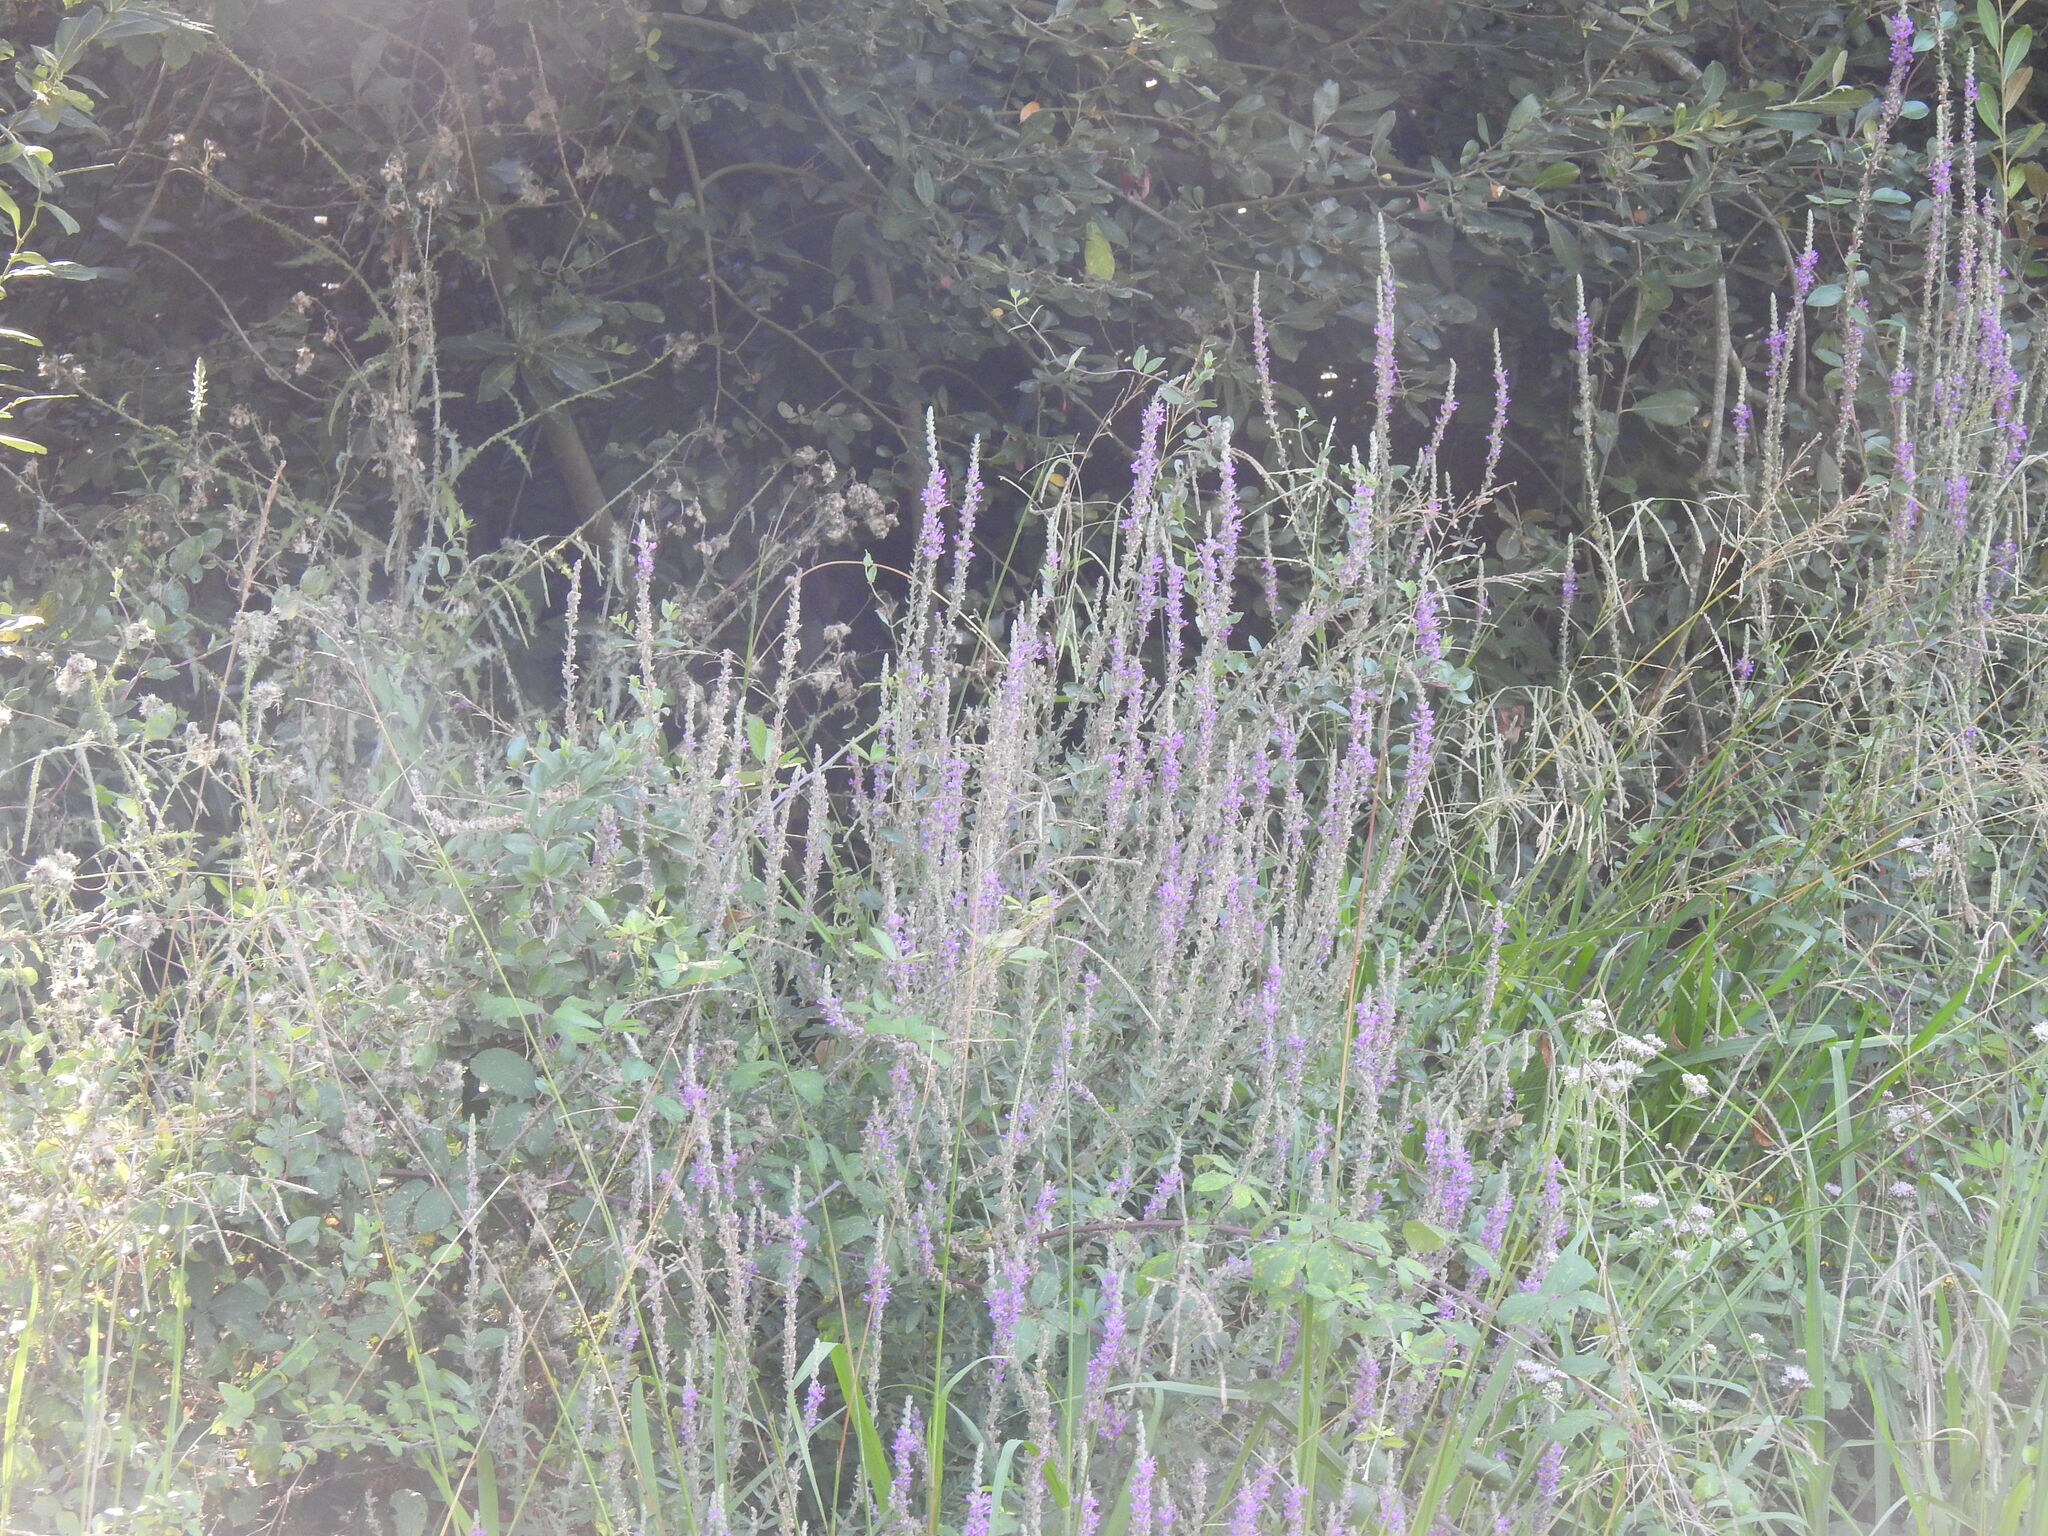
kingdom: Plantae
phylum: Tracheophyta
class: Magnoliopsida
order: Myrtales
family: Lythraceae
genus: Lythrum
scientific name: Lythrum salicaria
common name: Purple loosestrife
